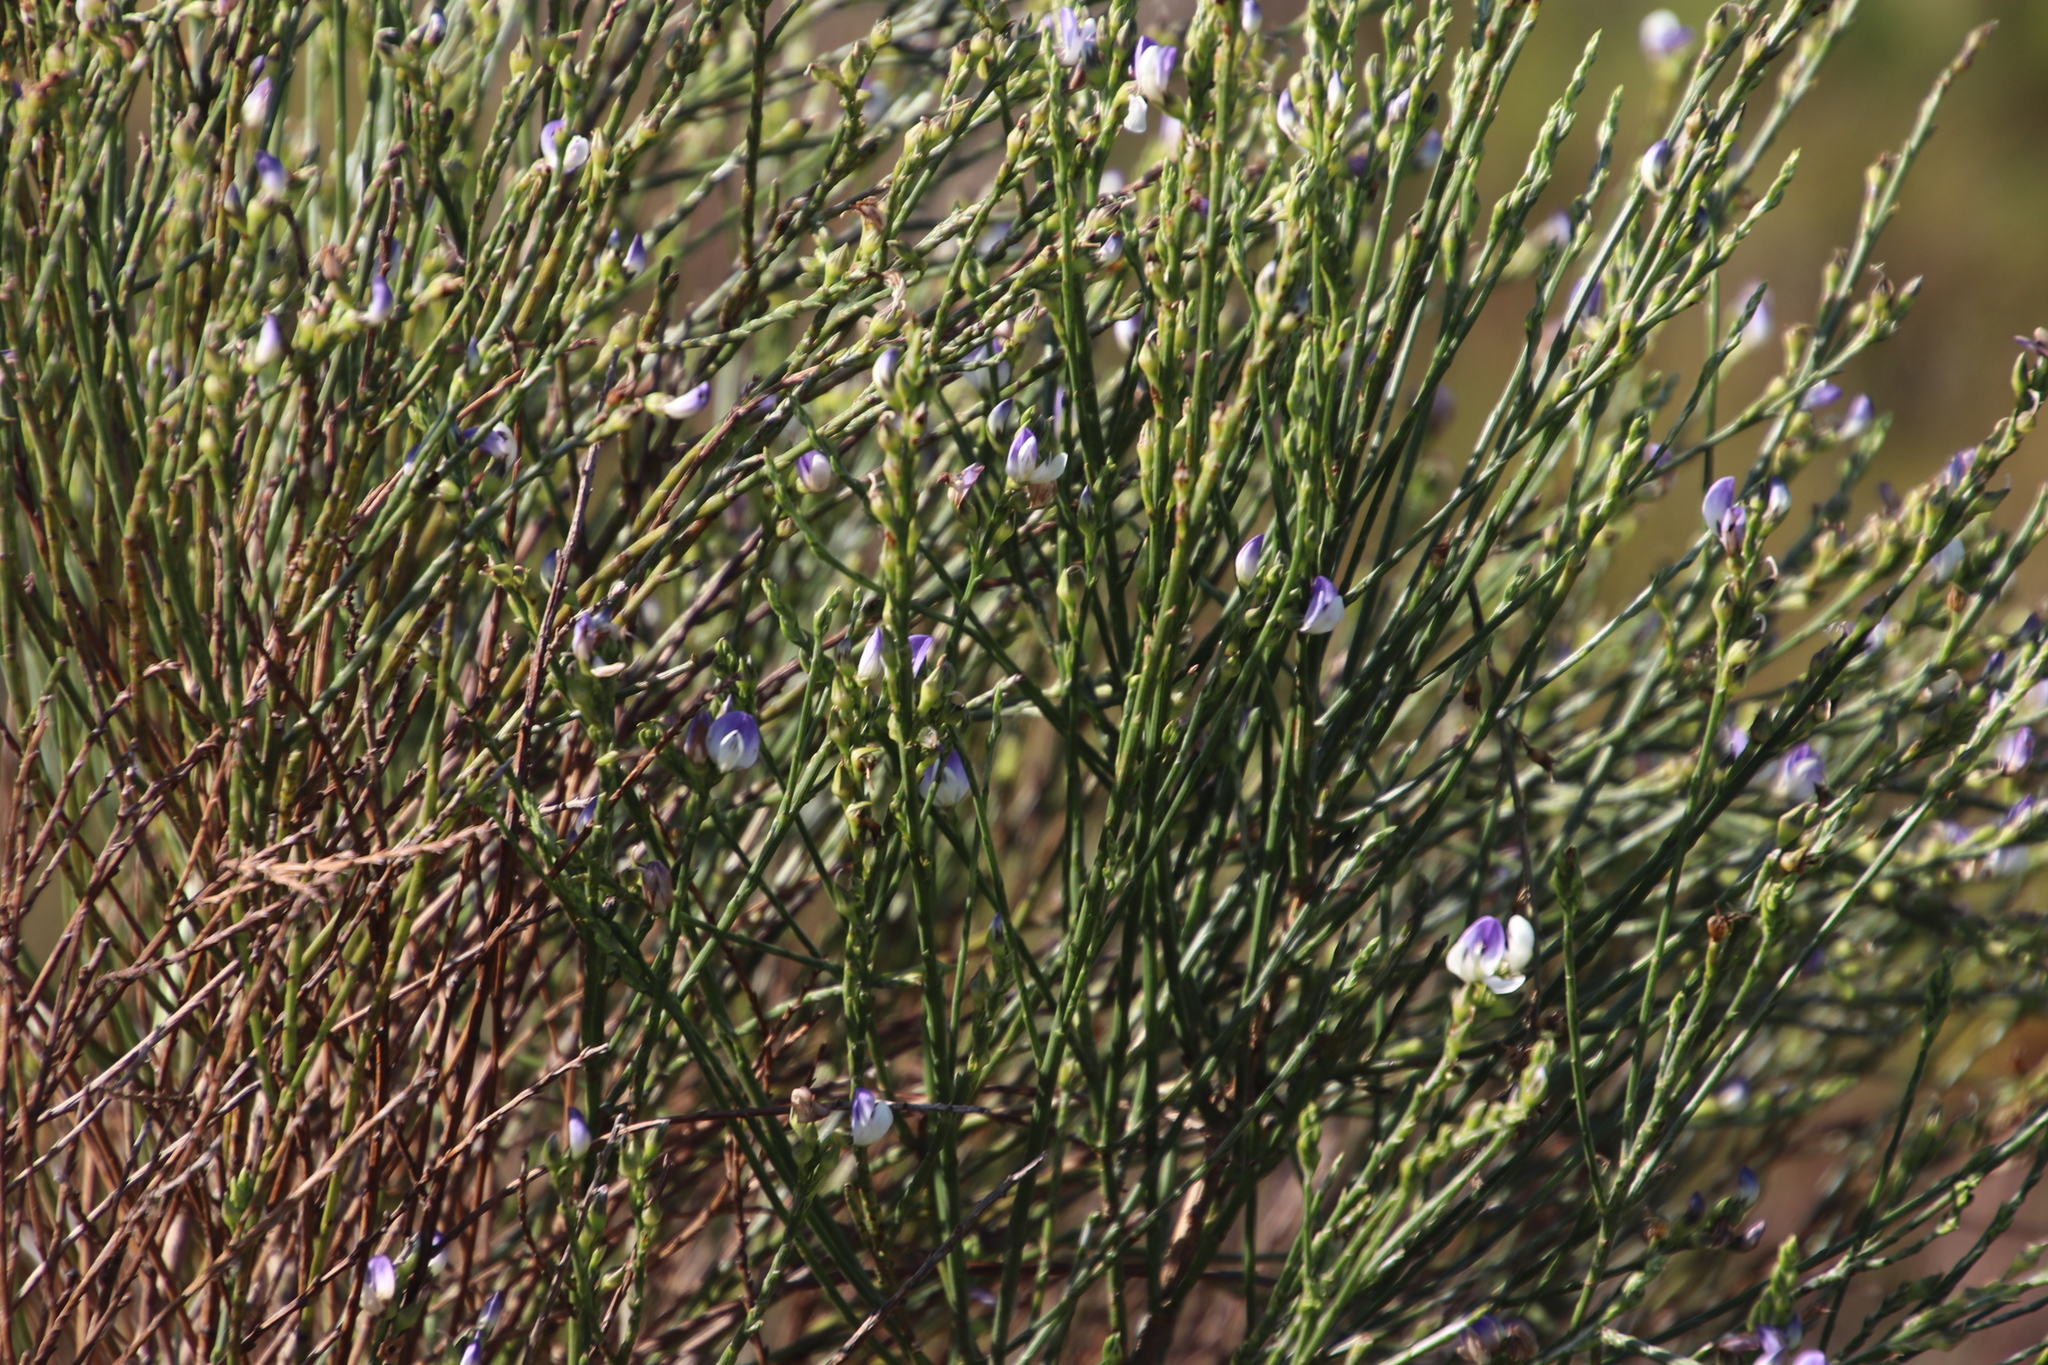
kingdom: Plantae
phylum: Tracheophyta
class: Magnoliopsida
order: Fabales
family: Fabaceae
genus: Psoralea
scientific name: Psoralea aphylla
